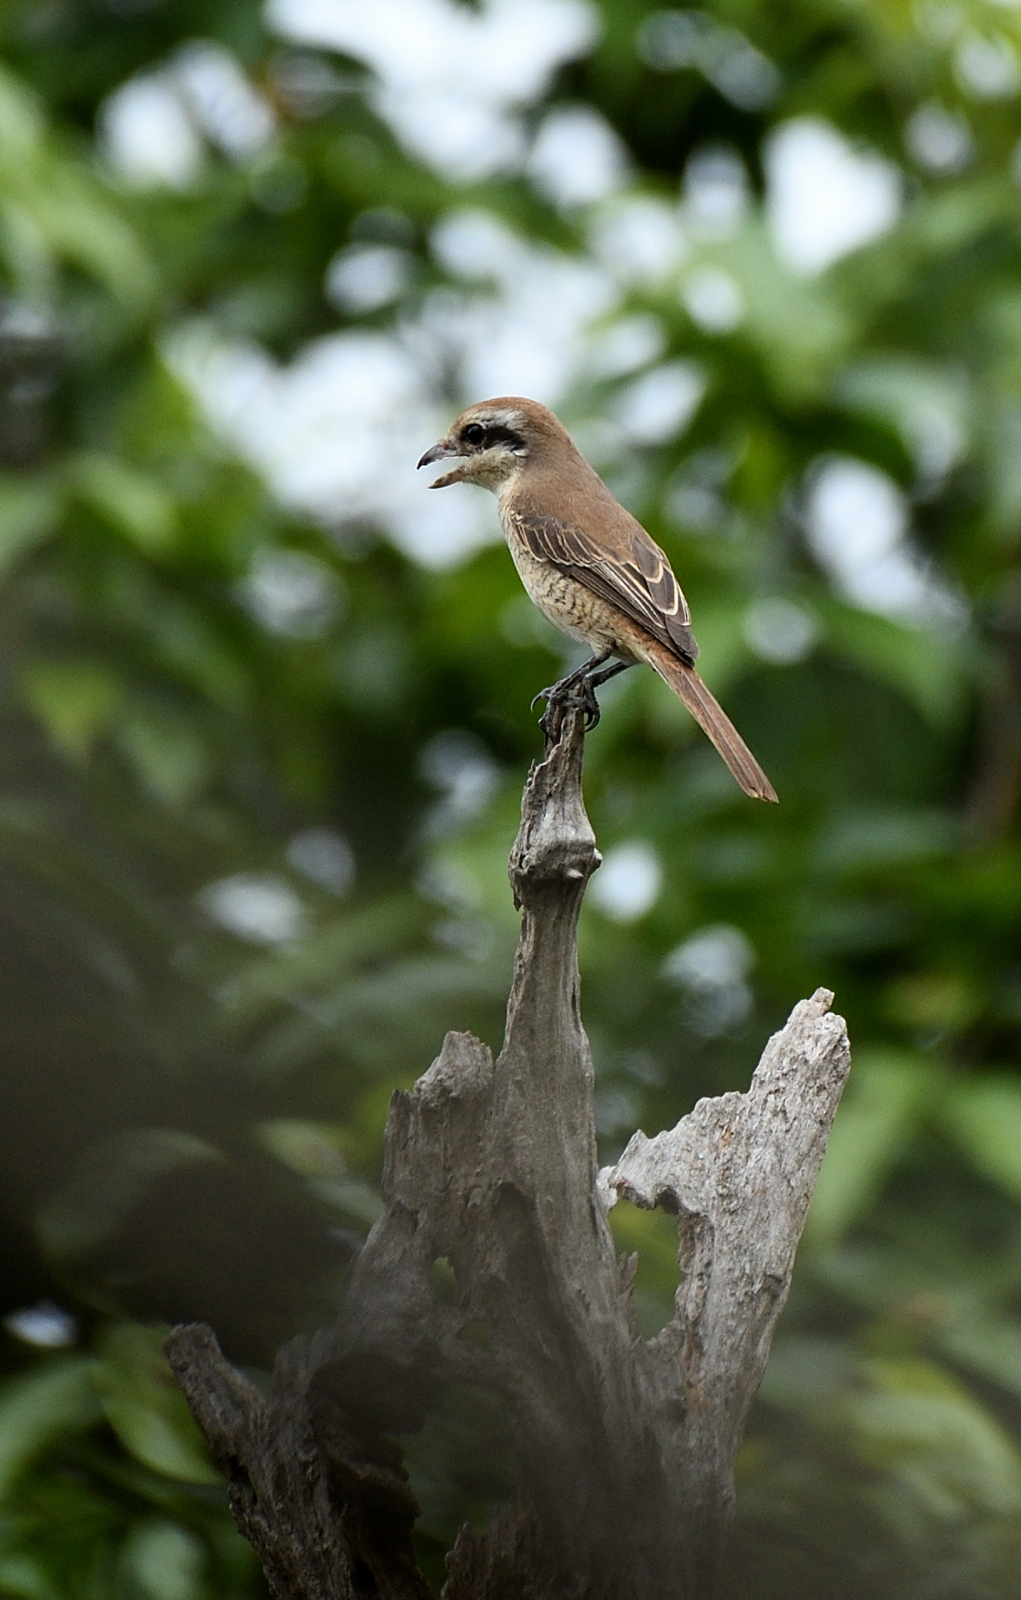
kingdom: Animalia
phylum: Chordata
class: Aves
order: Passeriformes
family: Laniidae
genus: Lanius
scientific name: Lanius cristatus
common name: Brown shrike
